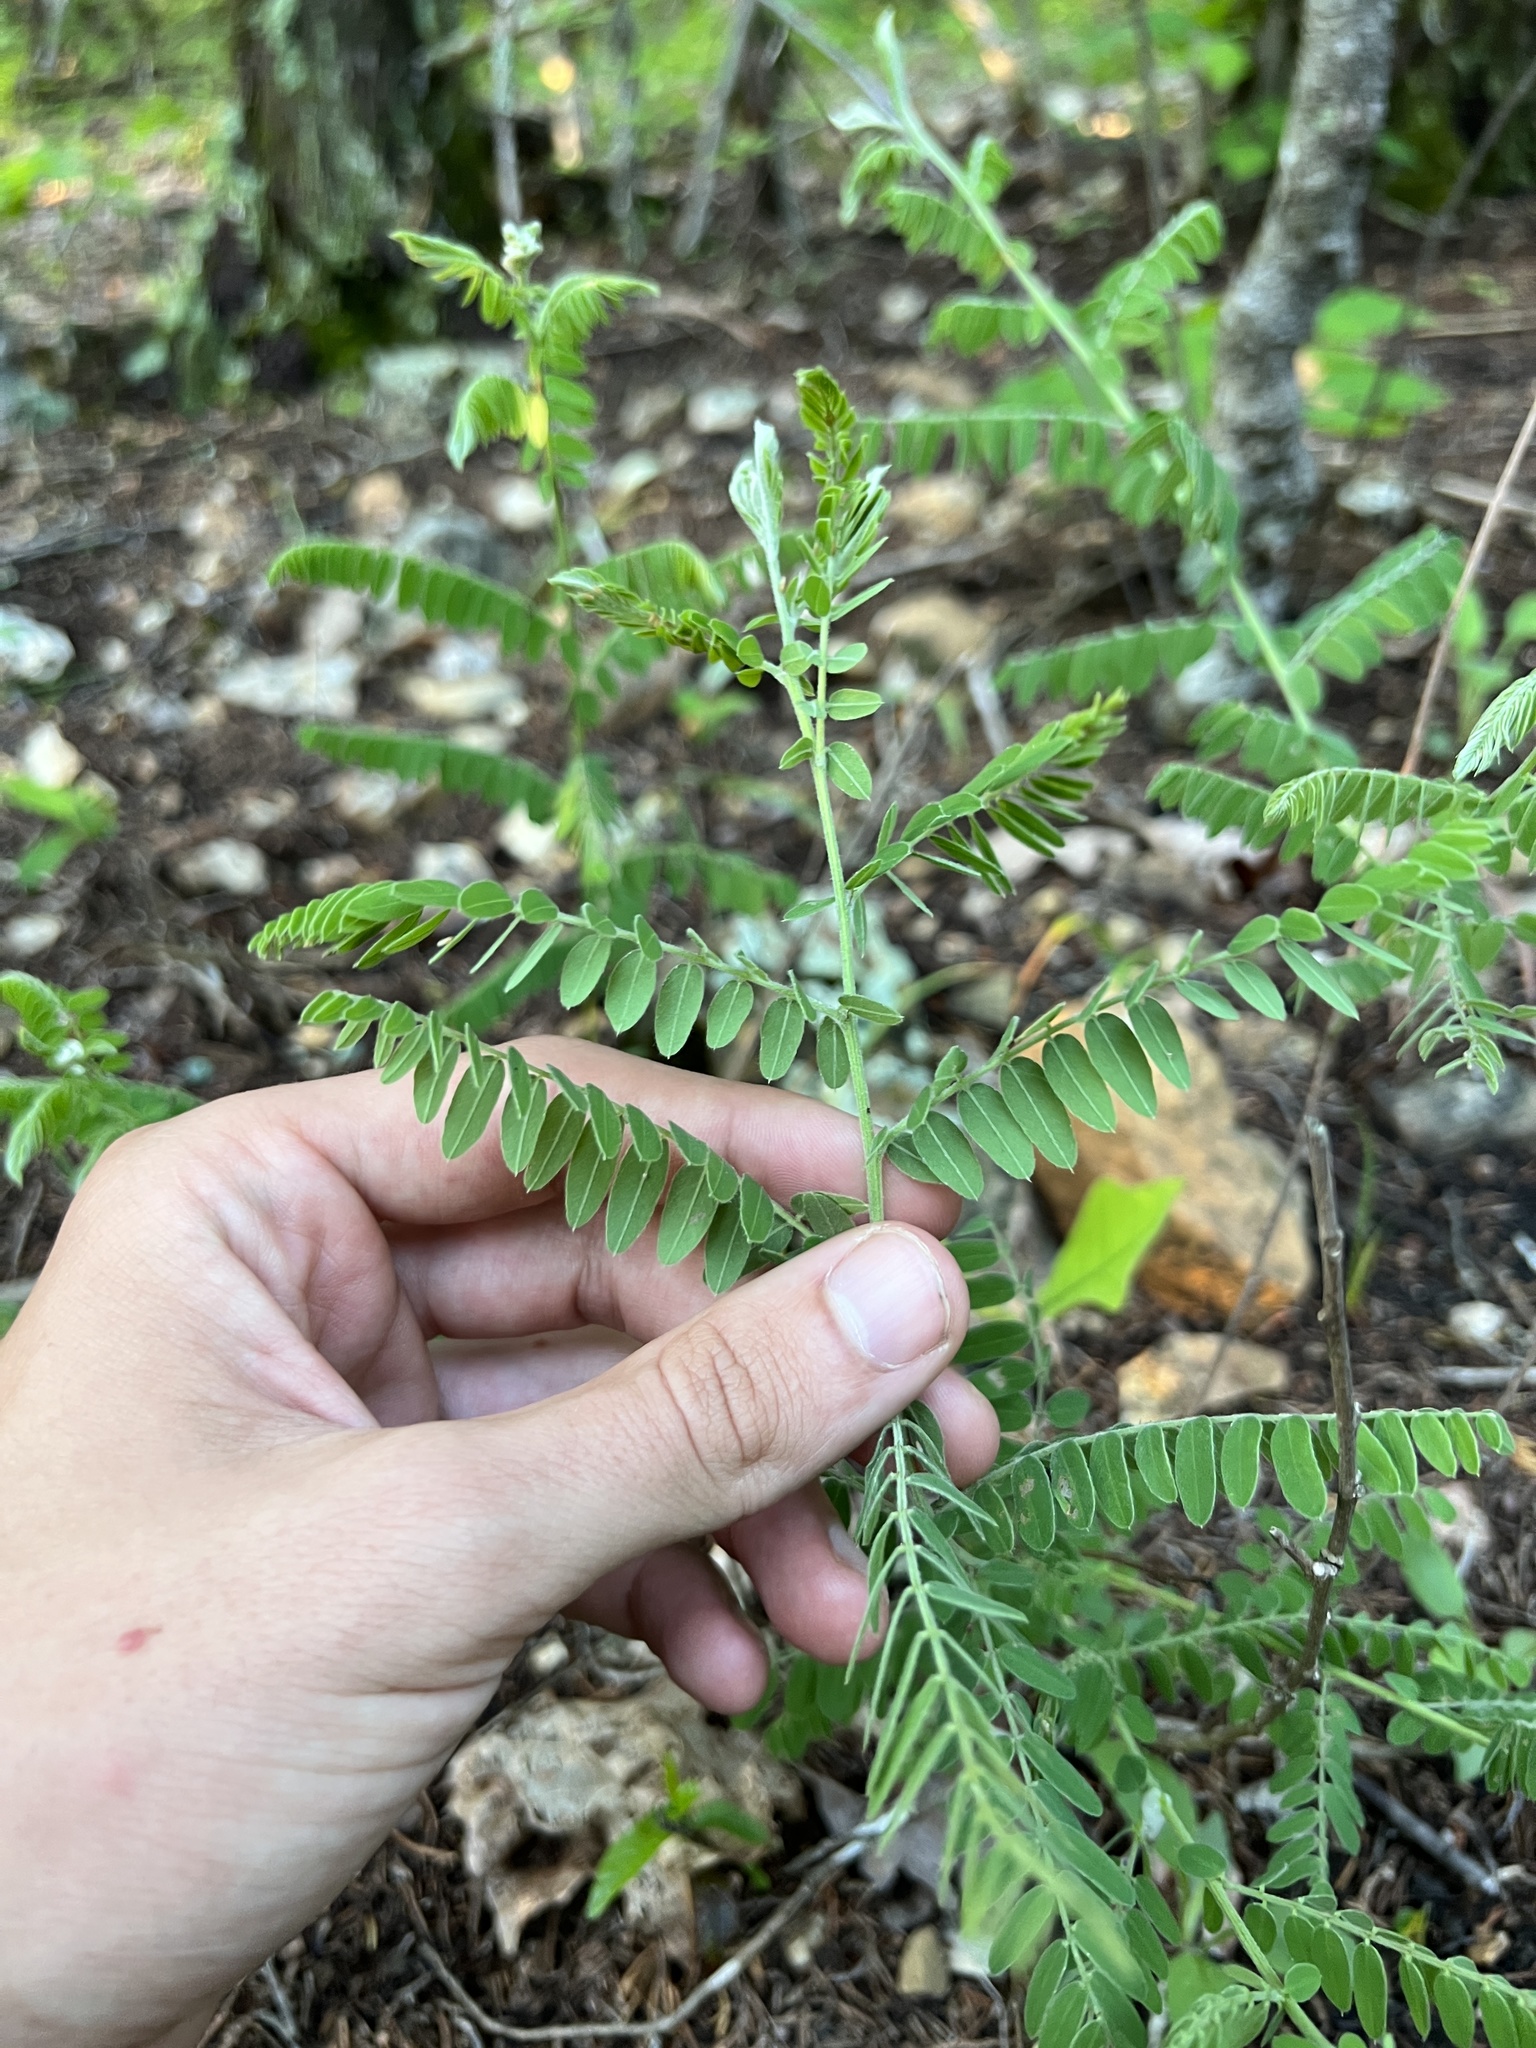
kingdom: Plantae
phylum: Tracheophyta
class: Magnoliopsida
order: Fabales
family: Fabaceae
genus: Amorpha
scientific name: Amorpha canescens
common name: Leadplant
